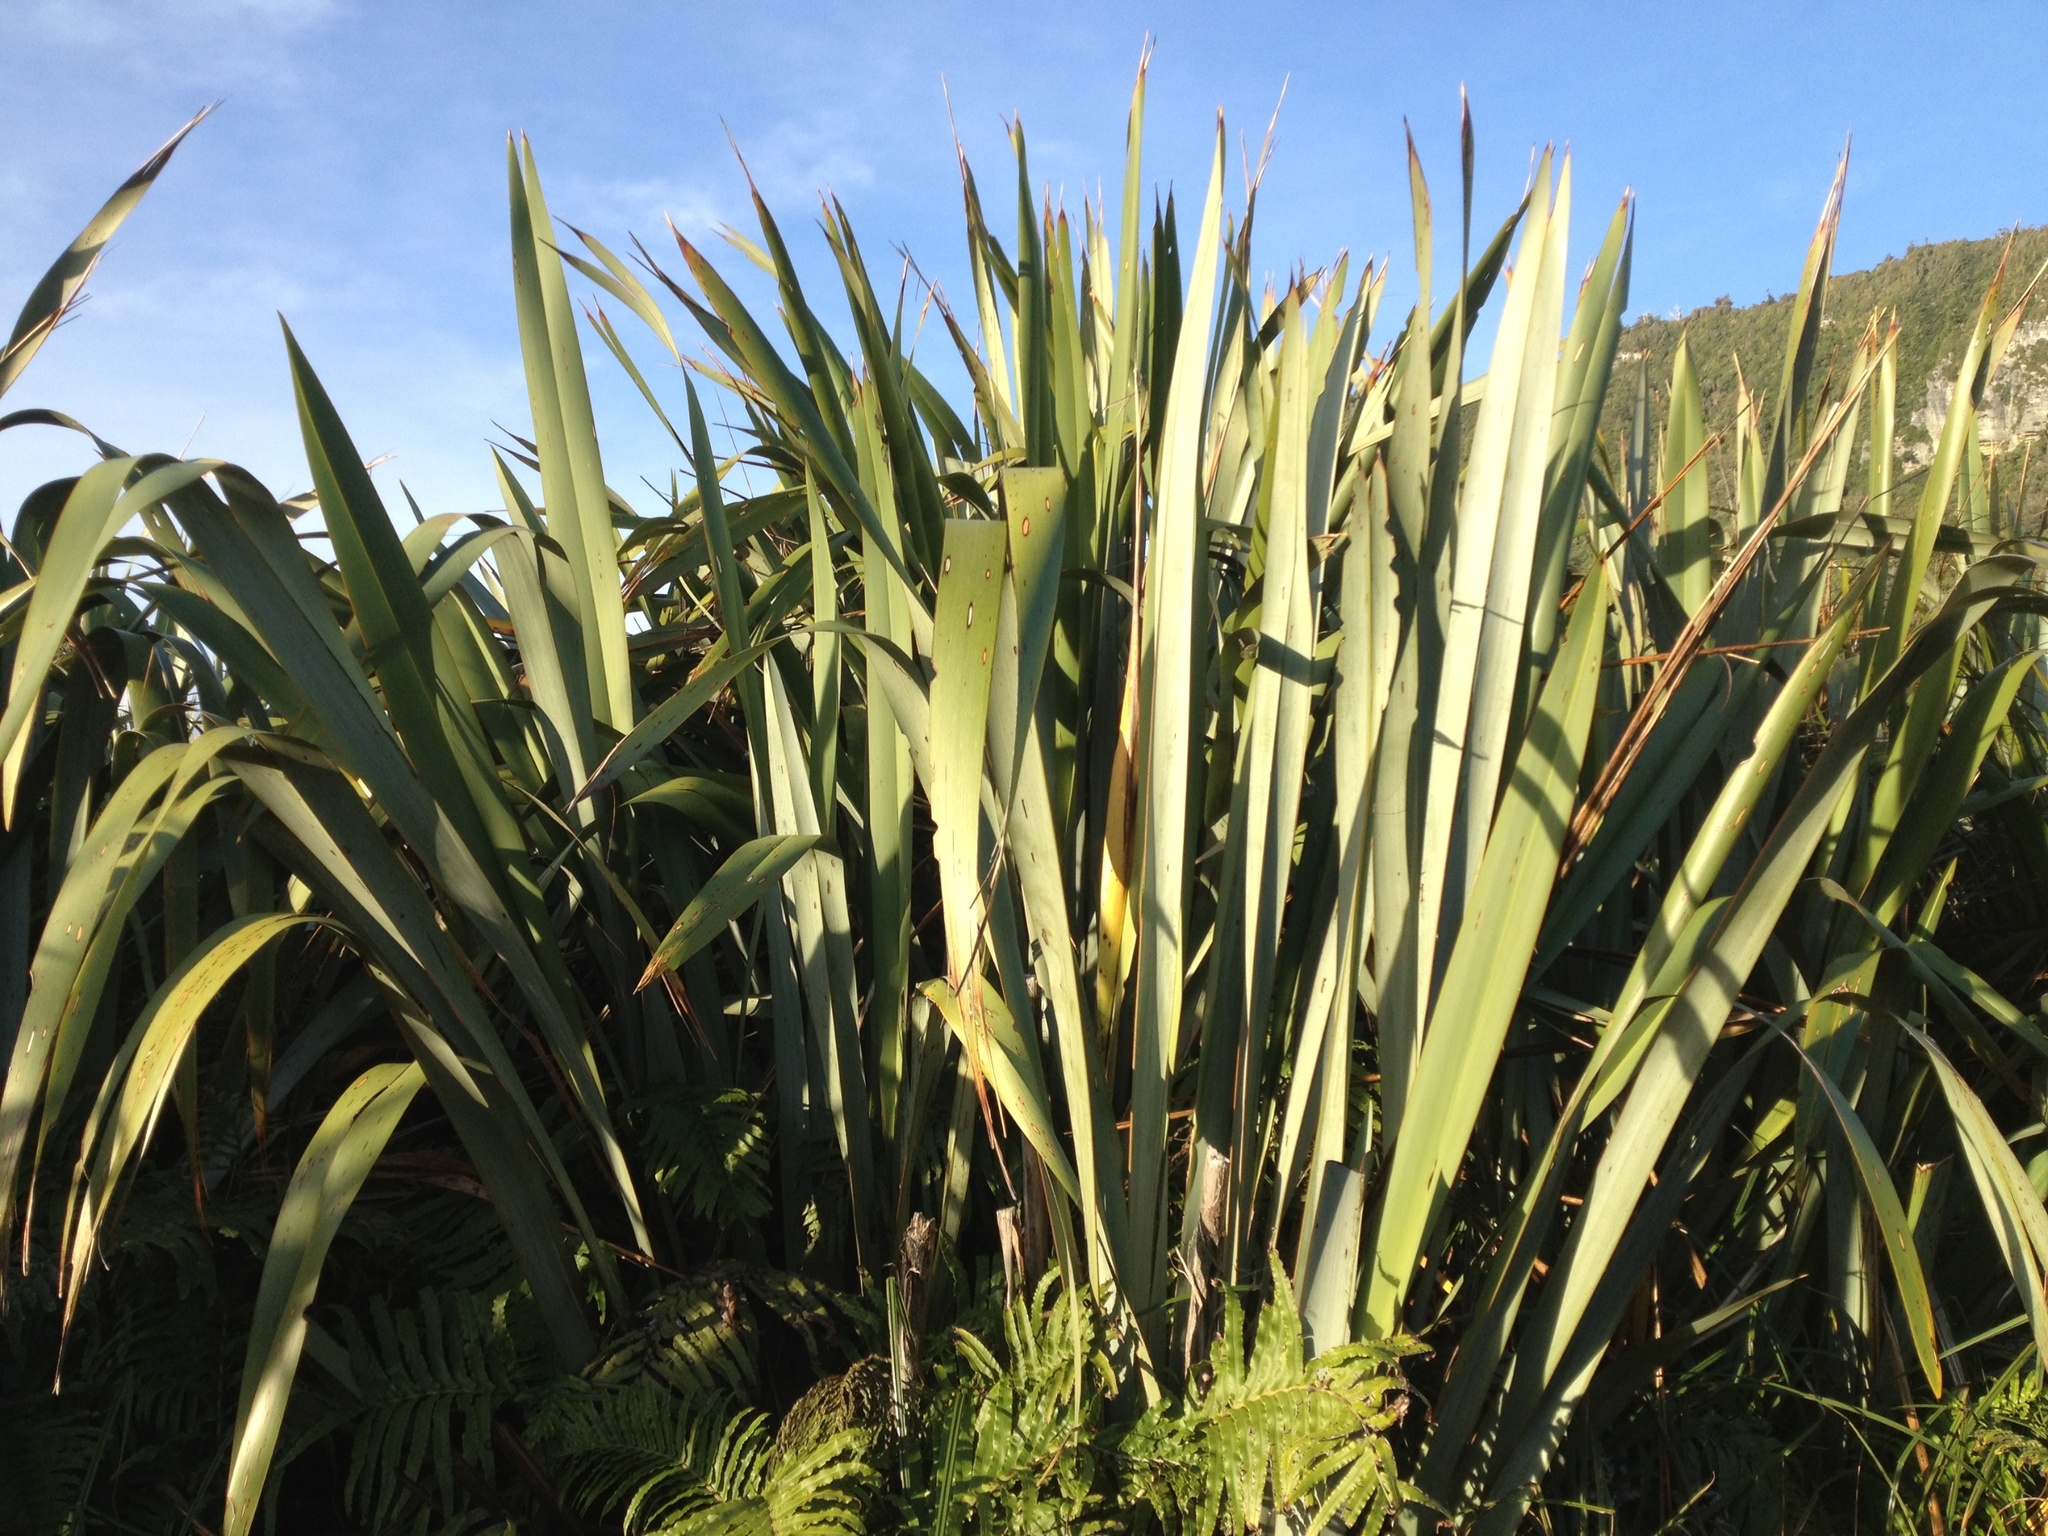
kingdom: Plantae
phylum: Tracheophyta
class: Liliopsida
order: Asparagales
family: Asphodelaceae
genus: Phormium
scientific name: Phormium tenax
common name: New zealand flax
